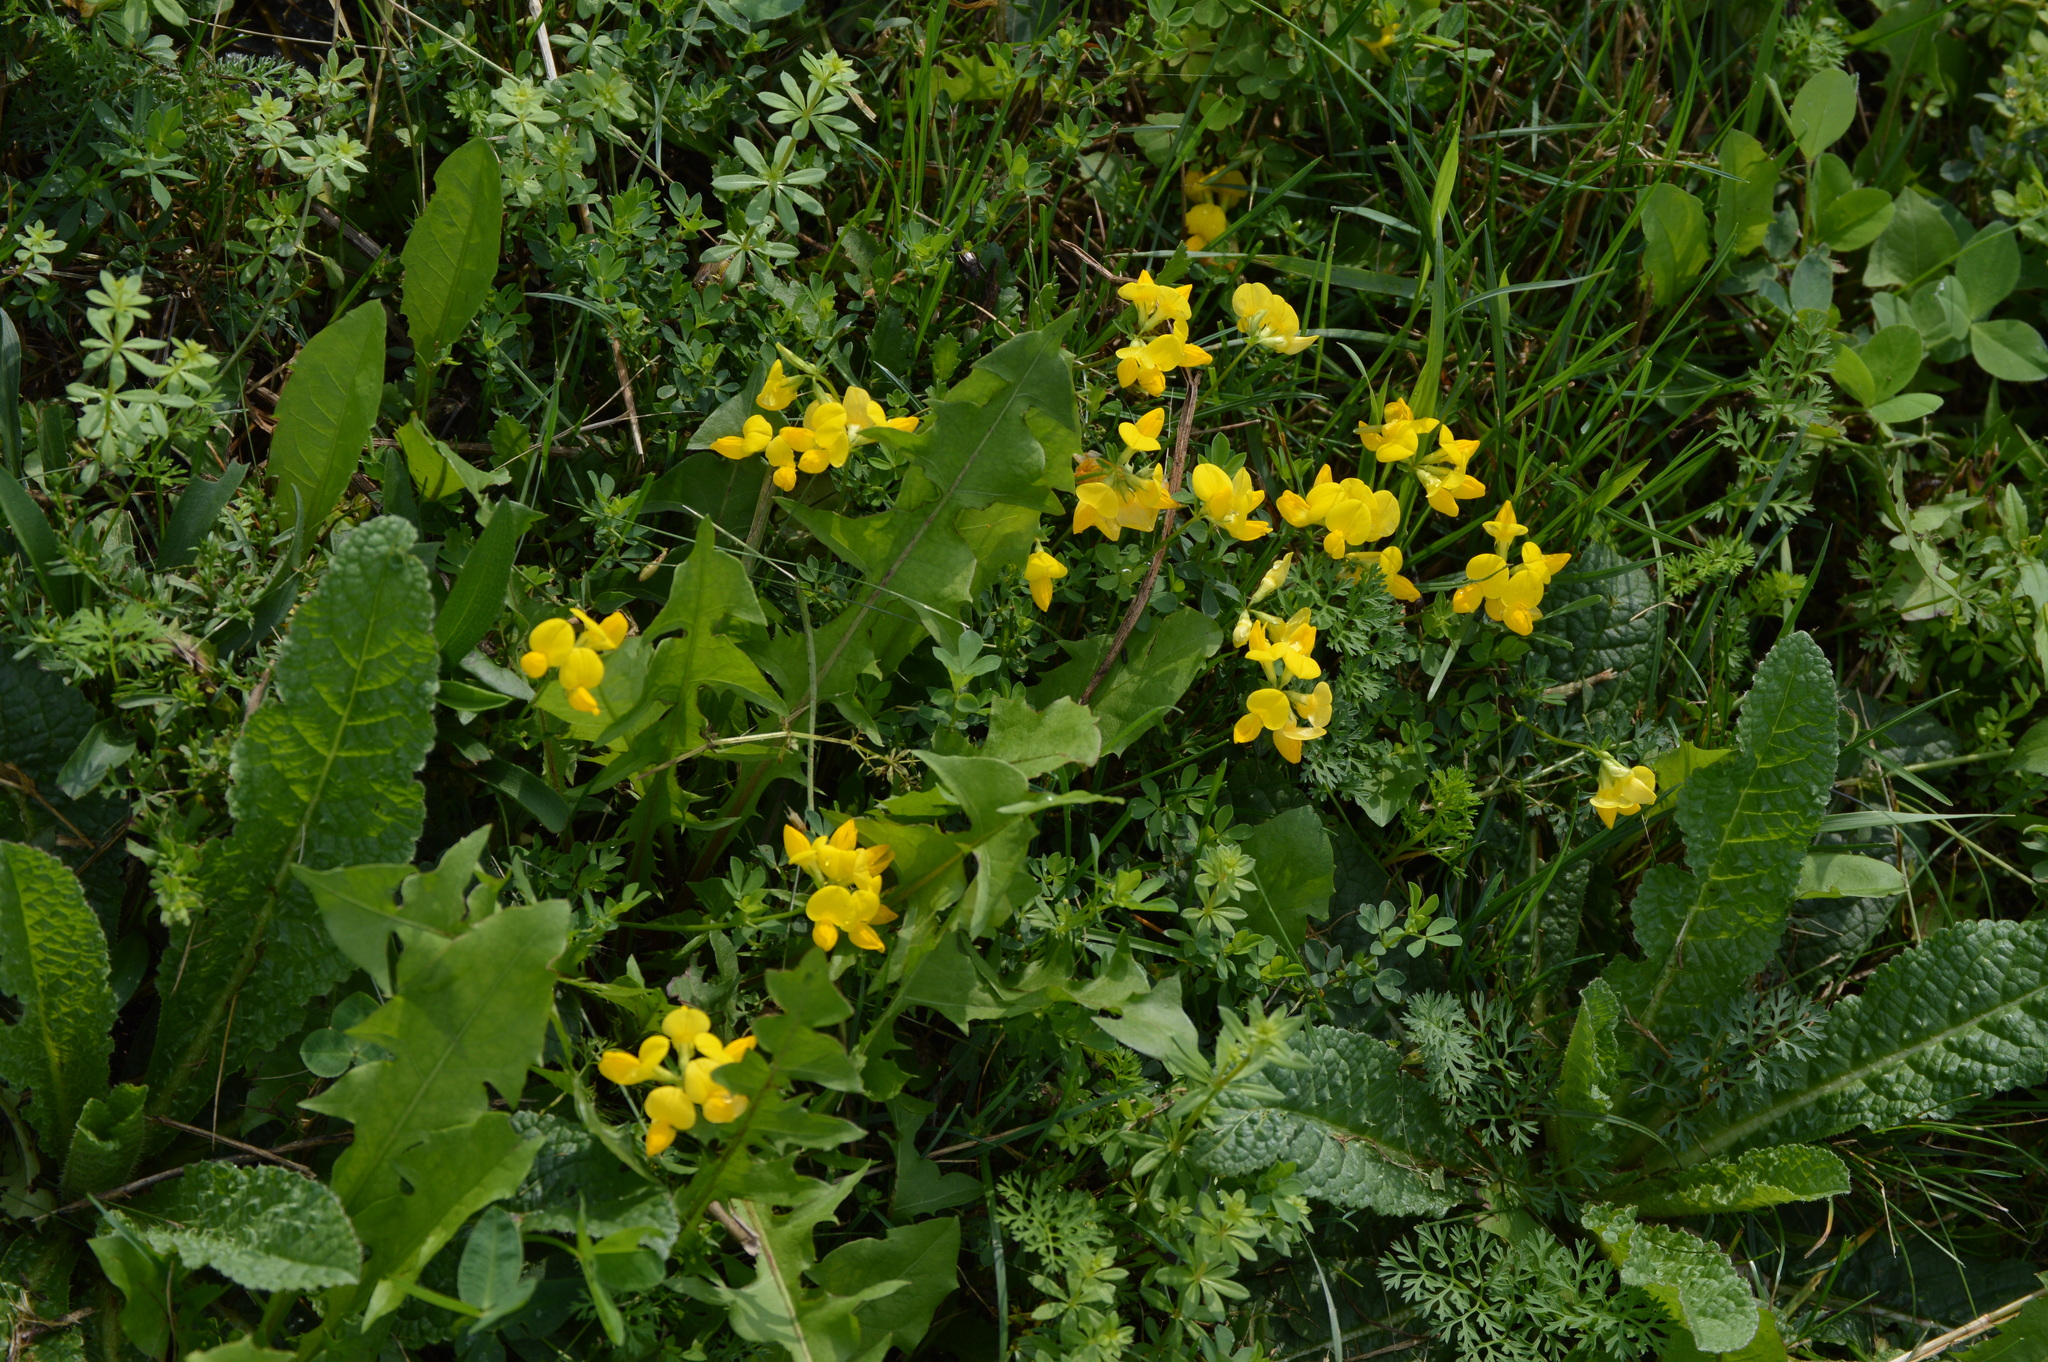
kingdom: Plantae
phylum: Tracheophyta
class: Magnoliopsida
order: Fabales
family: Fabaceae
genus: Lotus
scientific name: Lotus corniculatus
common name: Common bird's-foot-trefoil
